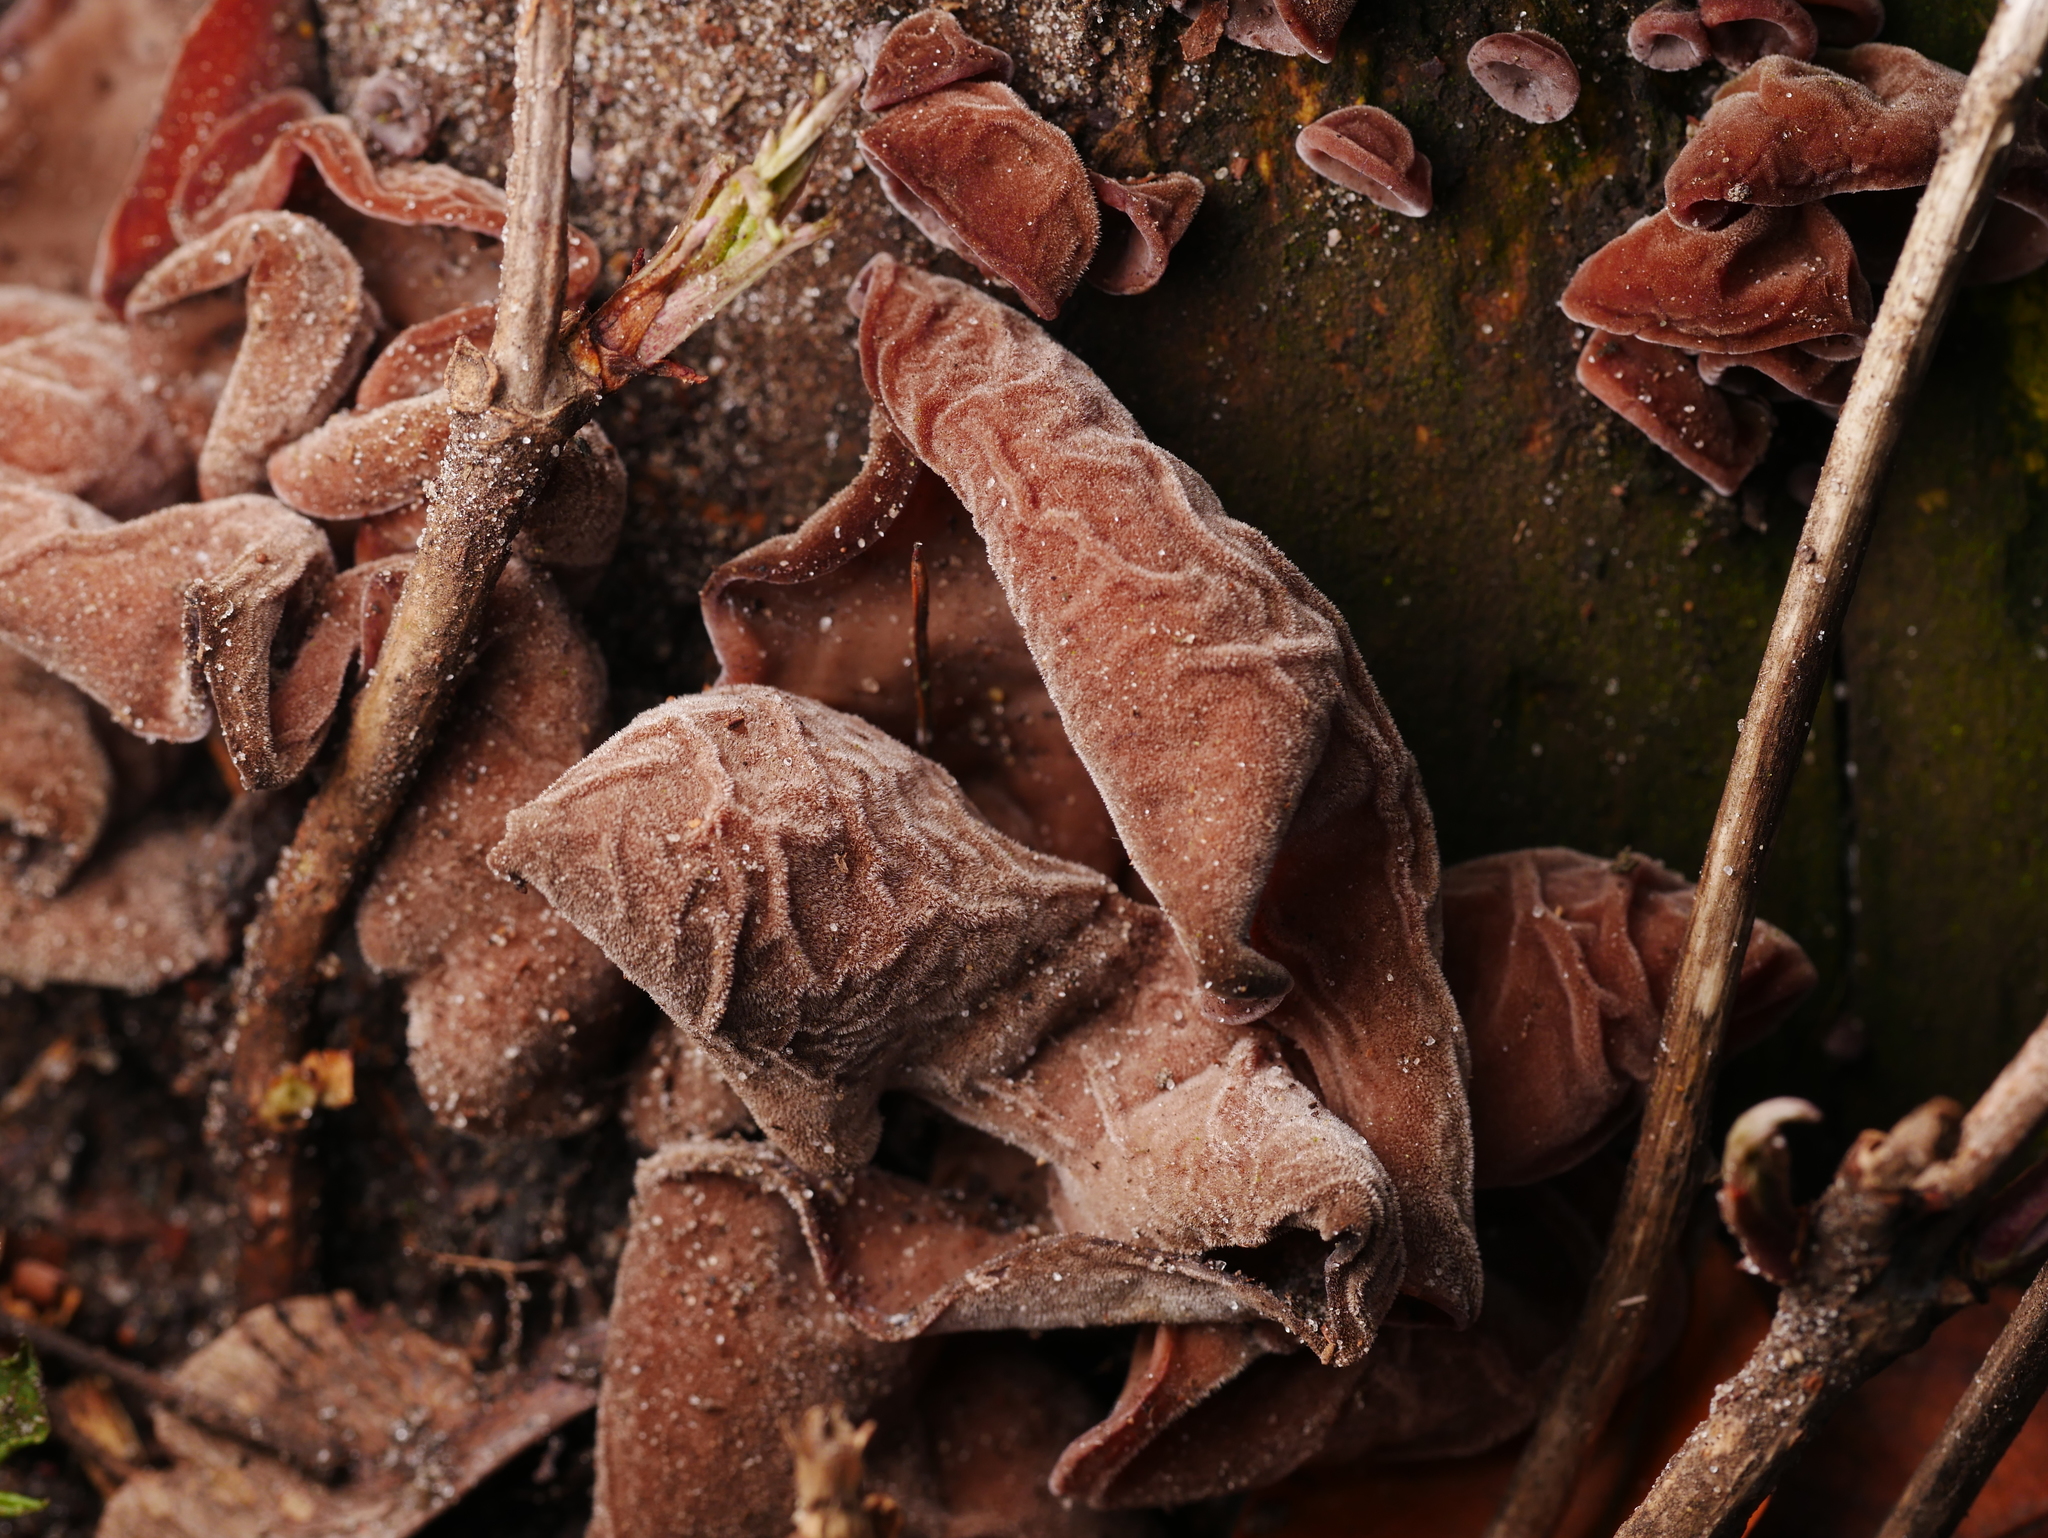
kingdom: Fungi
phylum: Basidiomycota
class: Agaricomycetes
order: Auriculariales
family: Auriculariaceae
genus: Auricularia
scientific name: Auricularia auricula-judae
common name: Jelly ear
